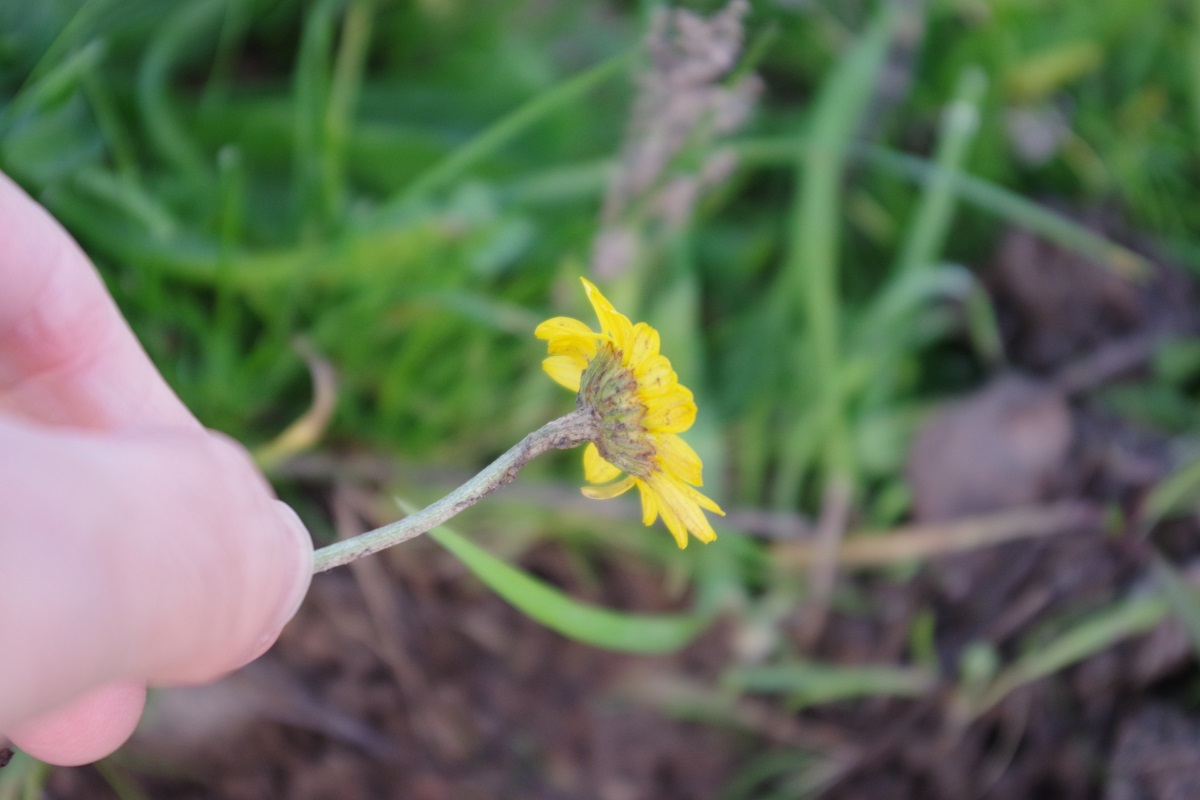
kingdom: Plantae
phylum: Tracheophyta
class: Magnoliopsida
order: Asterales
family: Asteraceae
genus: Cota
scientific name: Cota tinctoria
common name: Golden chamomile
